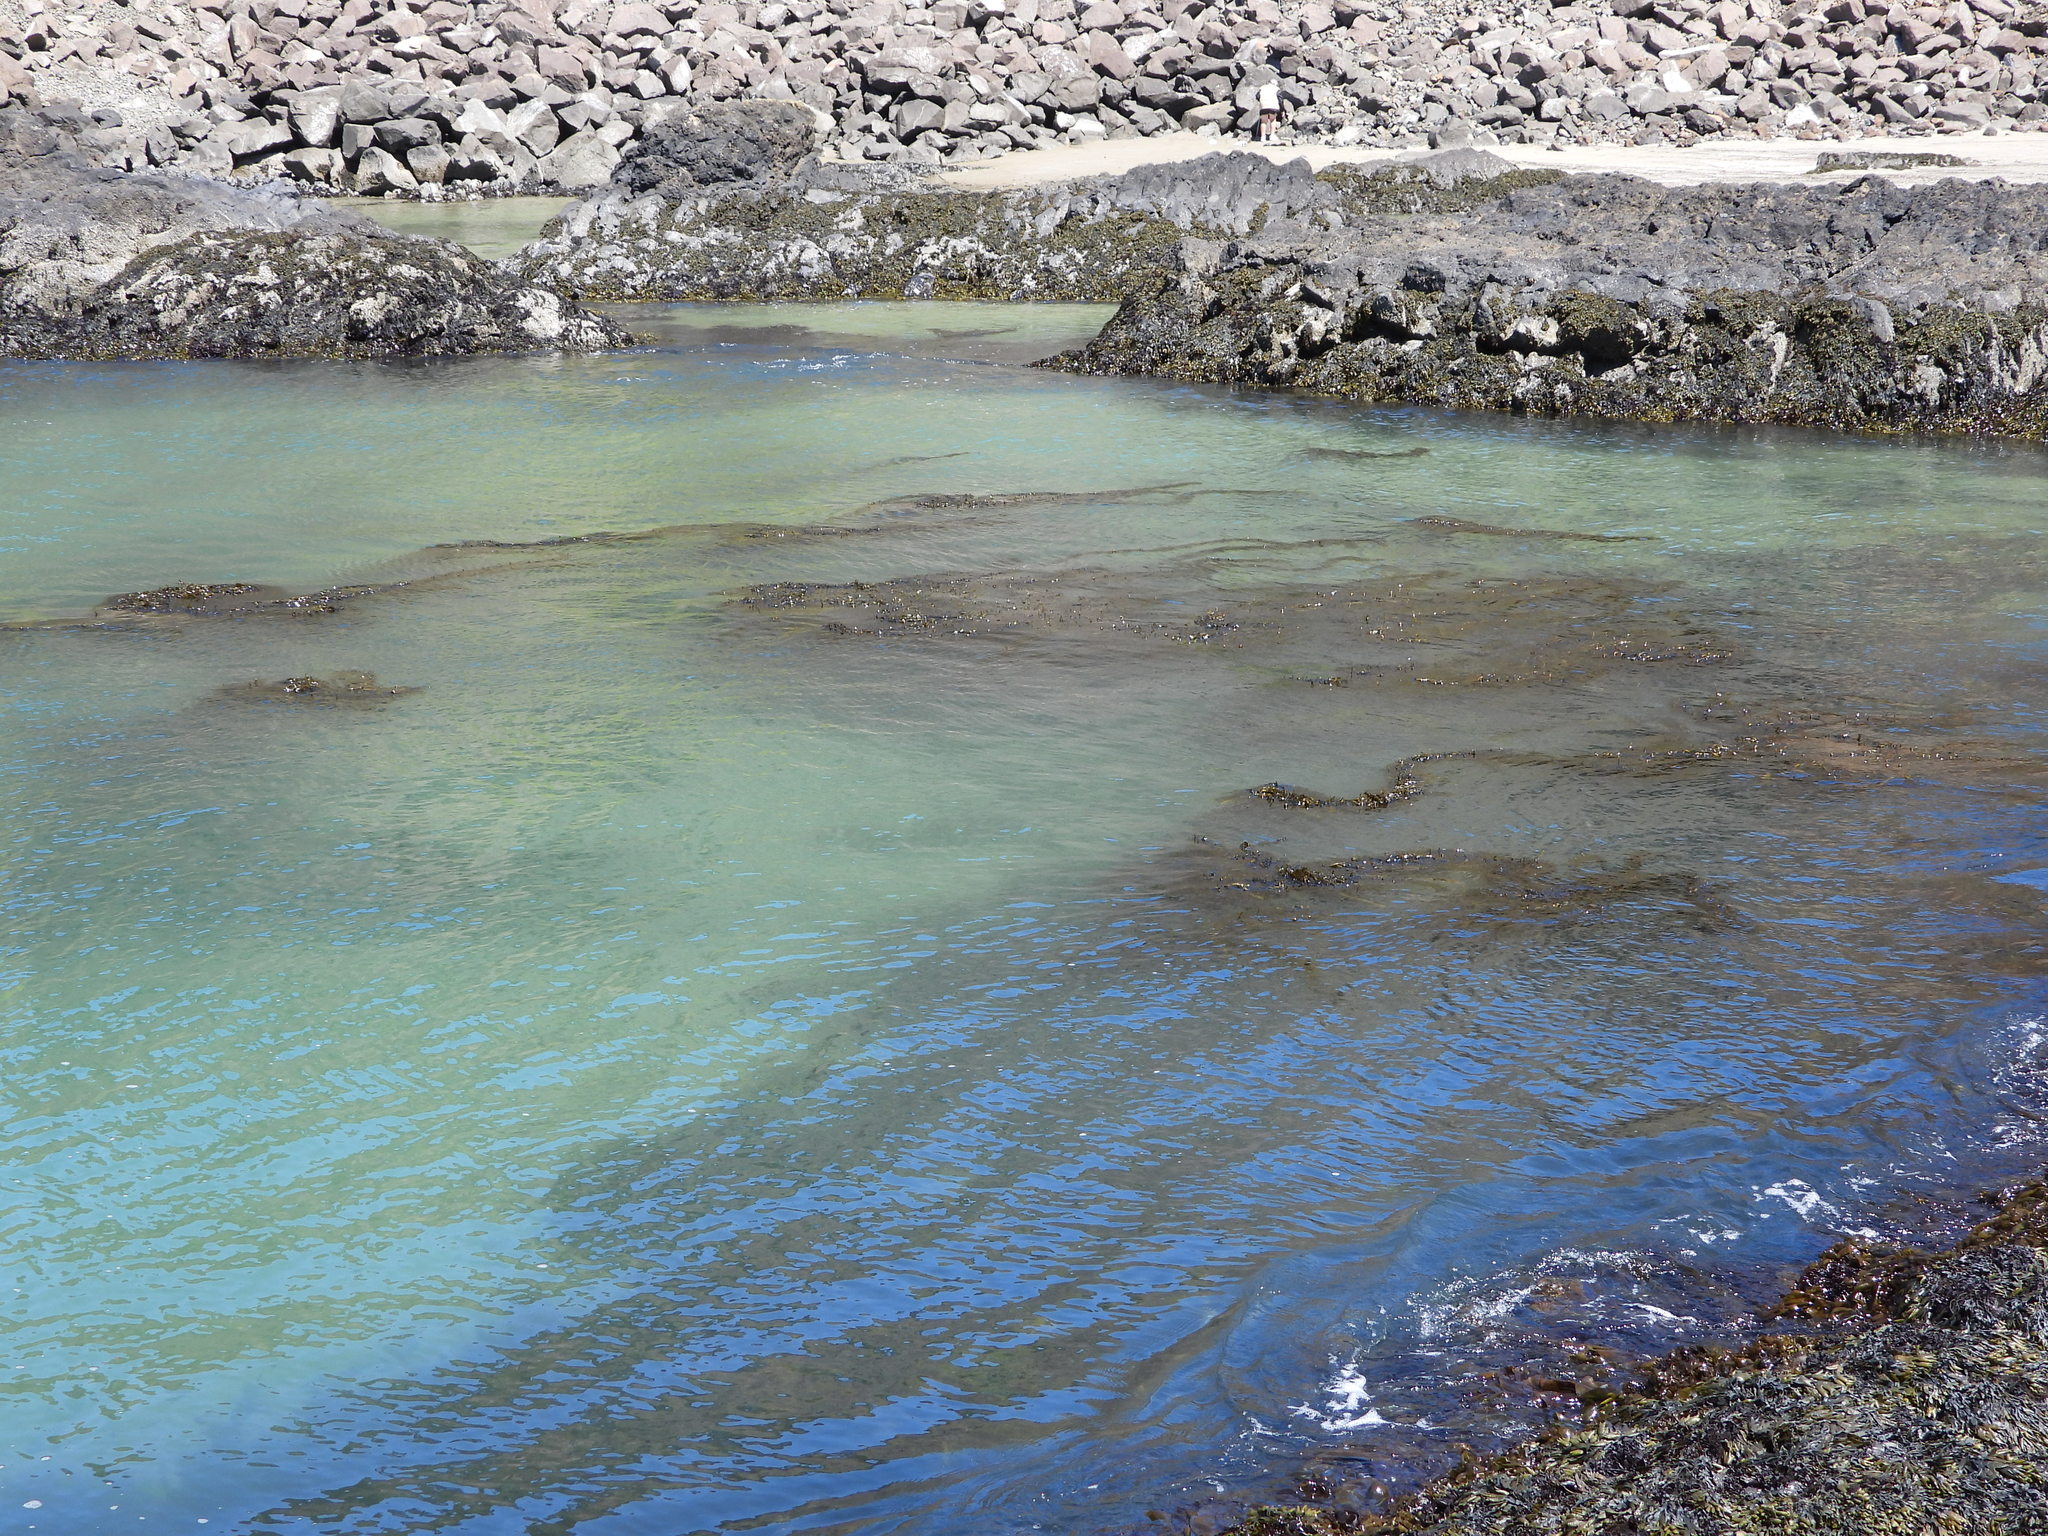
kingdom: Chromista
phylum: Ochrophyta
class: Phaeophyceae
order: Laminariales
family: Lessoniaceae
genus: Egregia
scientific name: Egregia menziesii
